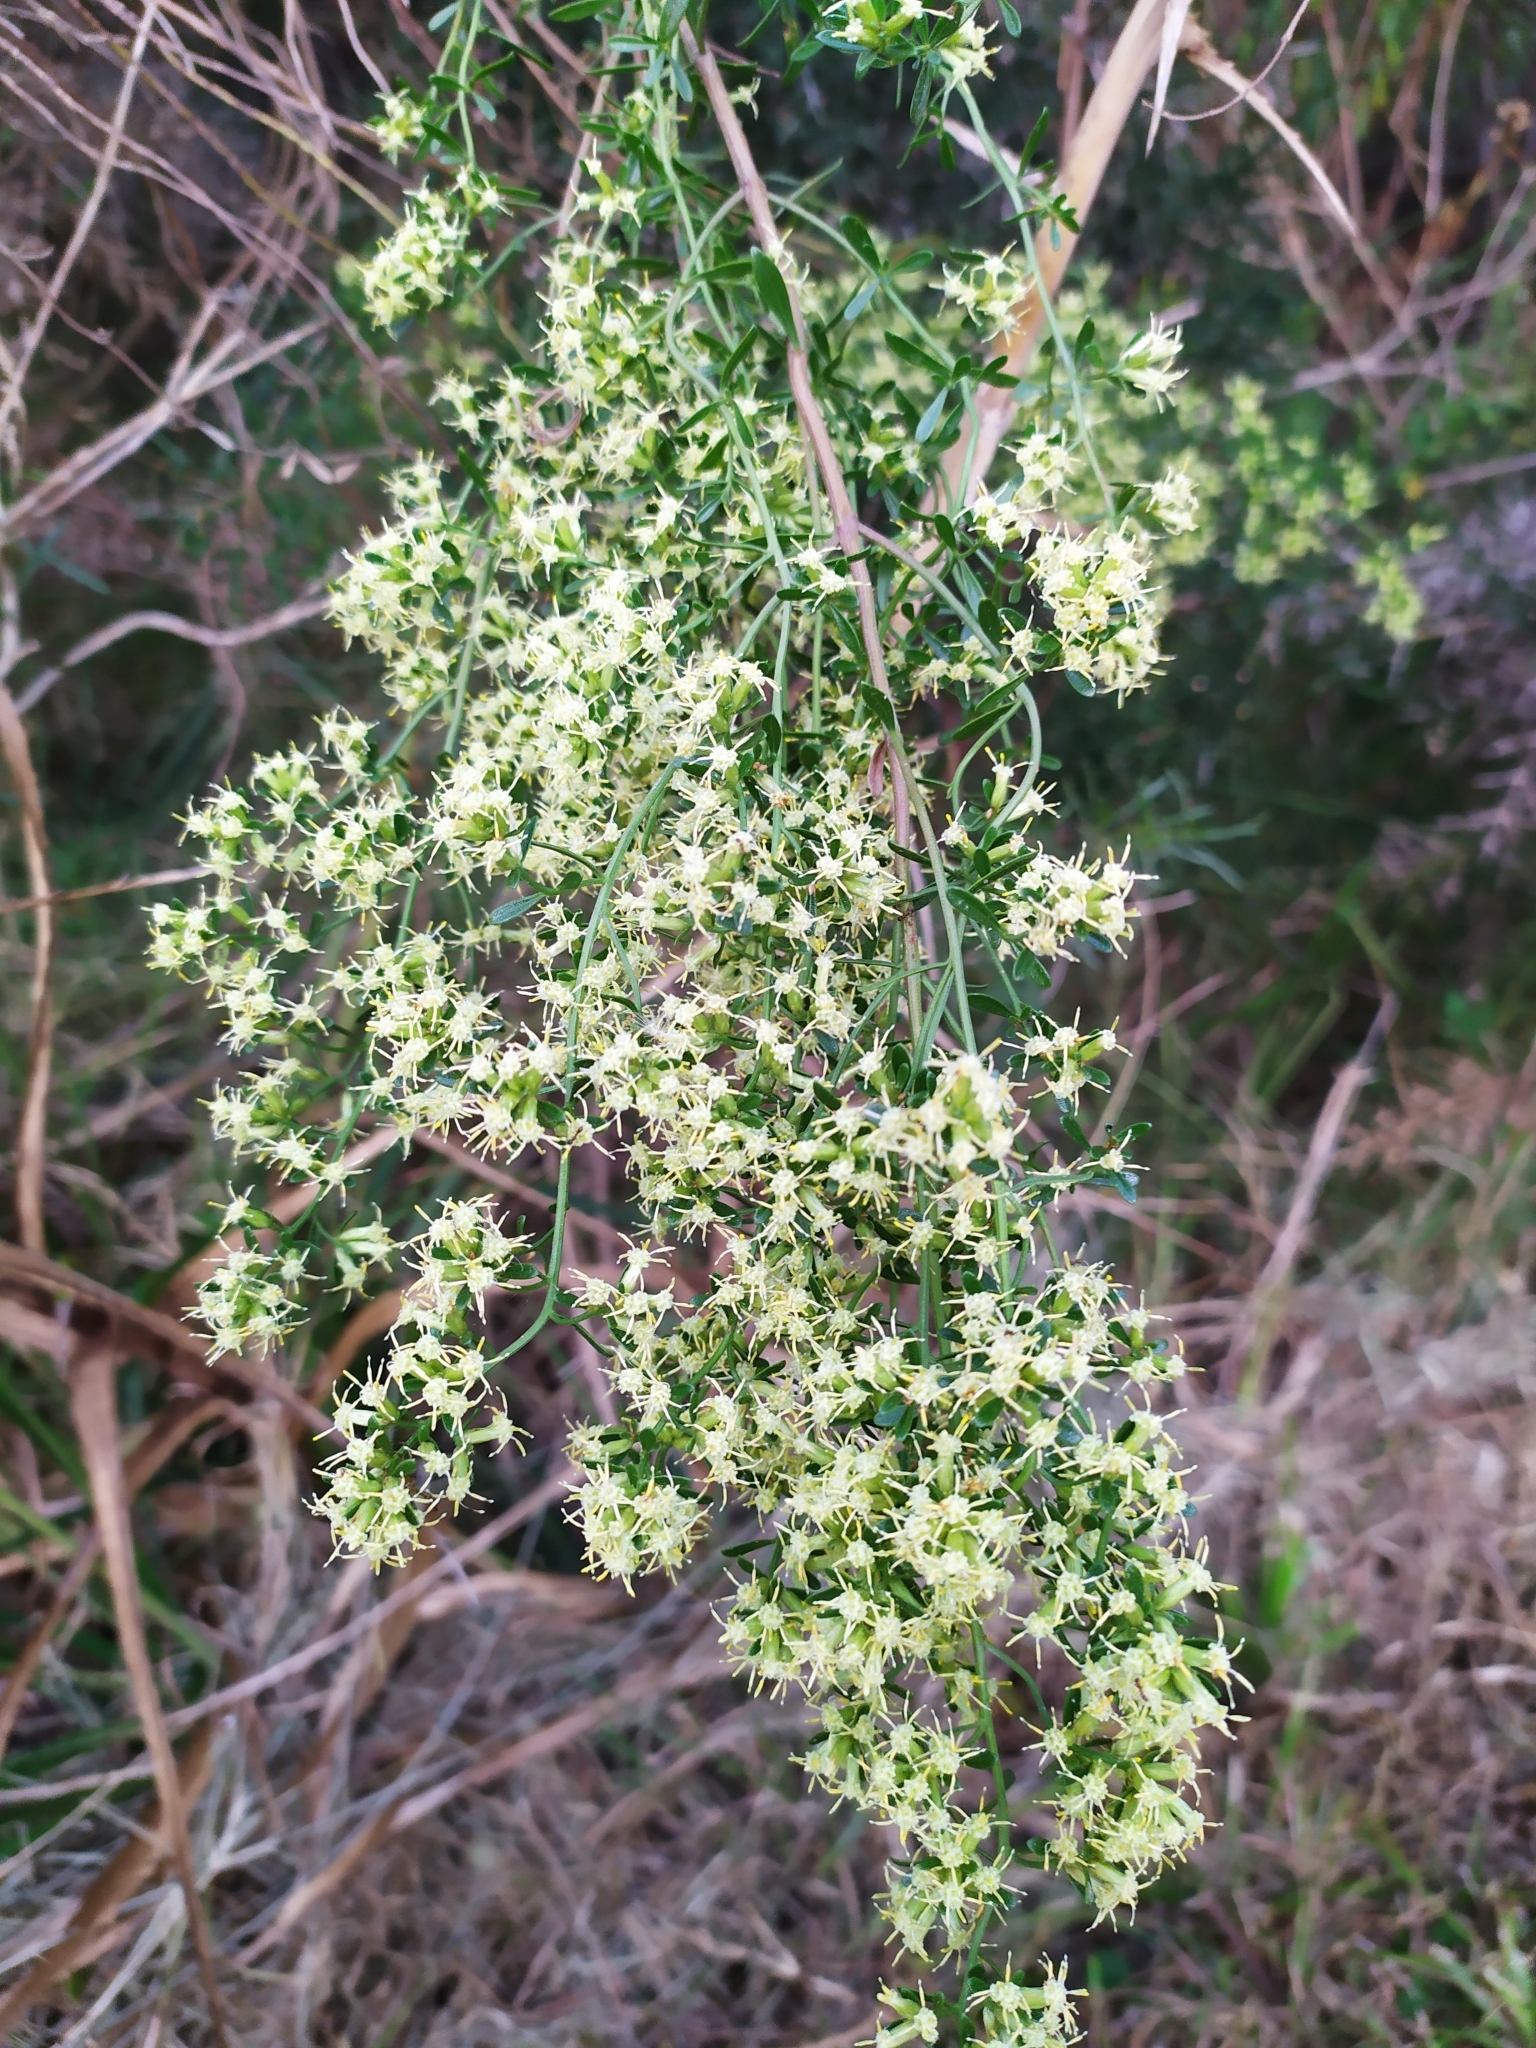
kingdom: Plantae
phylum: Tracheophyta
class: Magnoliopsida
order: Asterales
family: Asteraceae
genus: Baccharis
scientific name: Baccharis linearifolia
